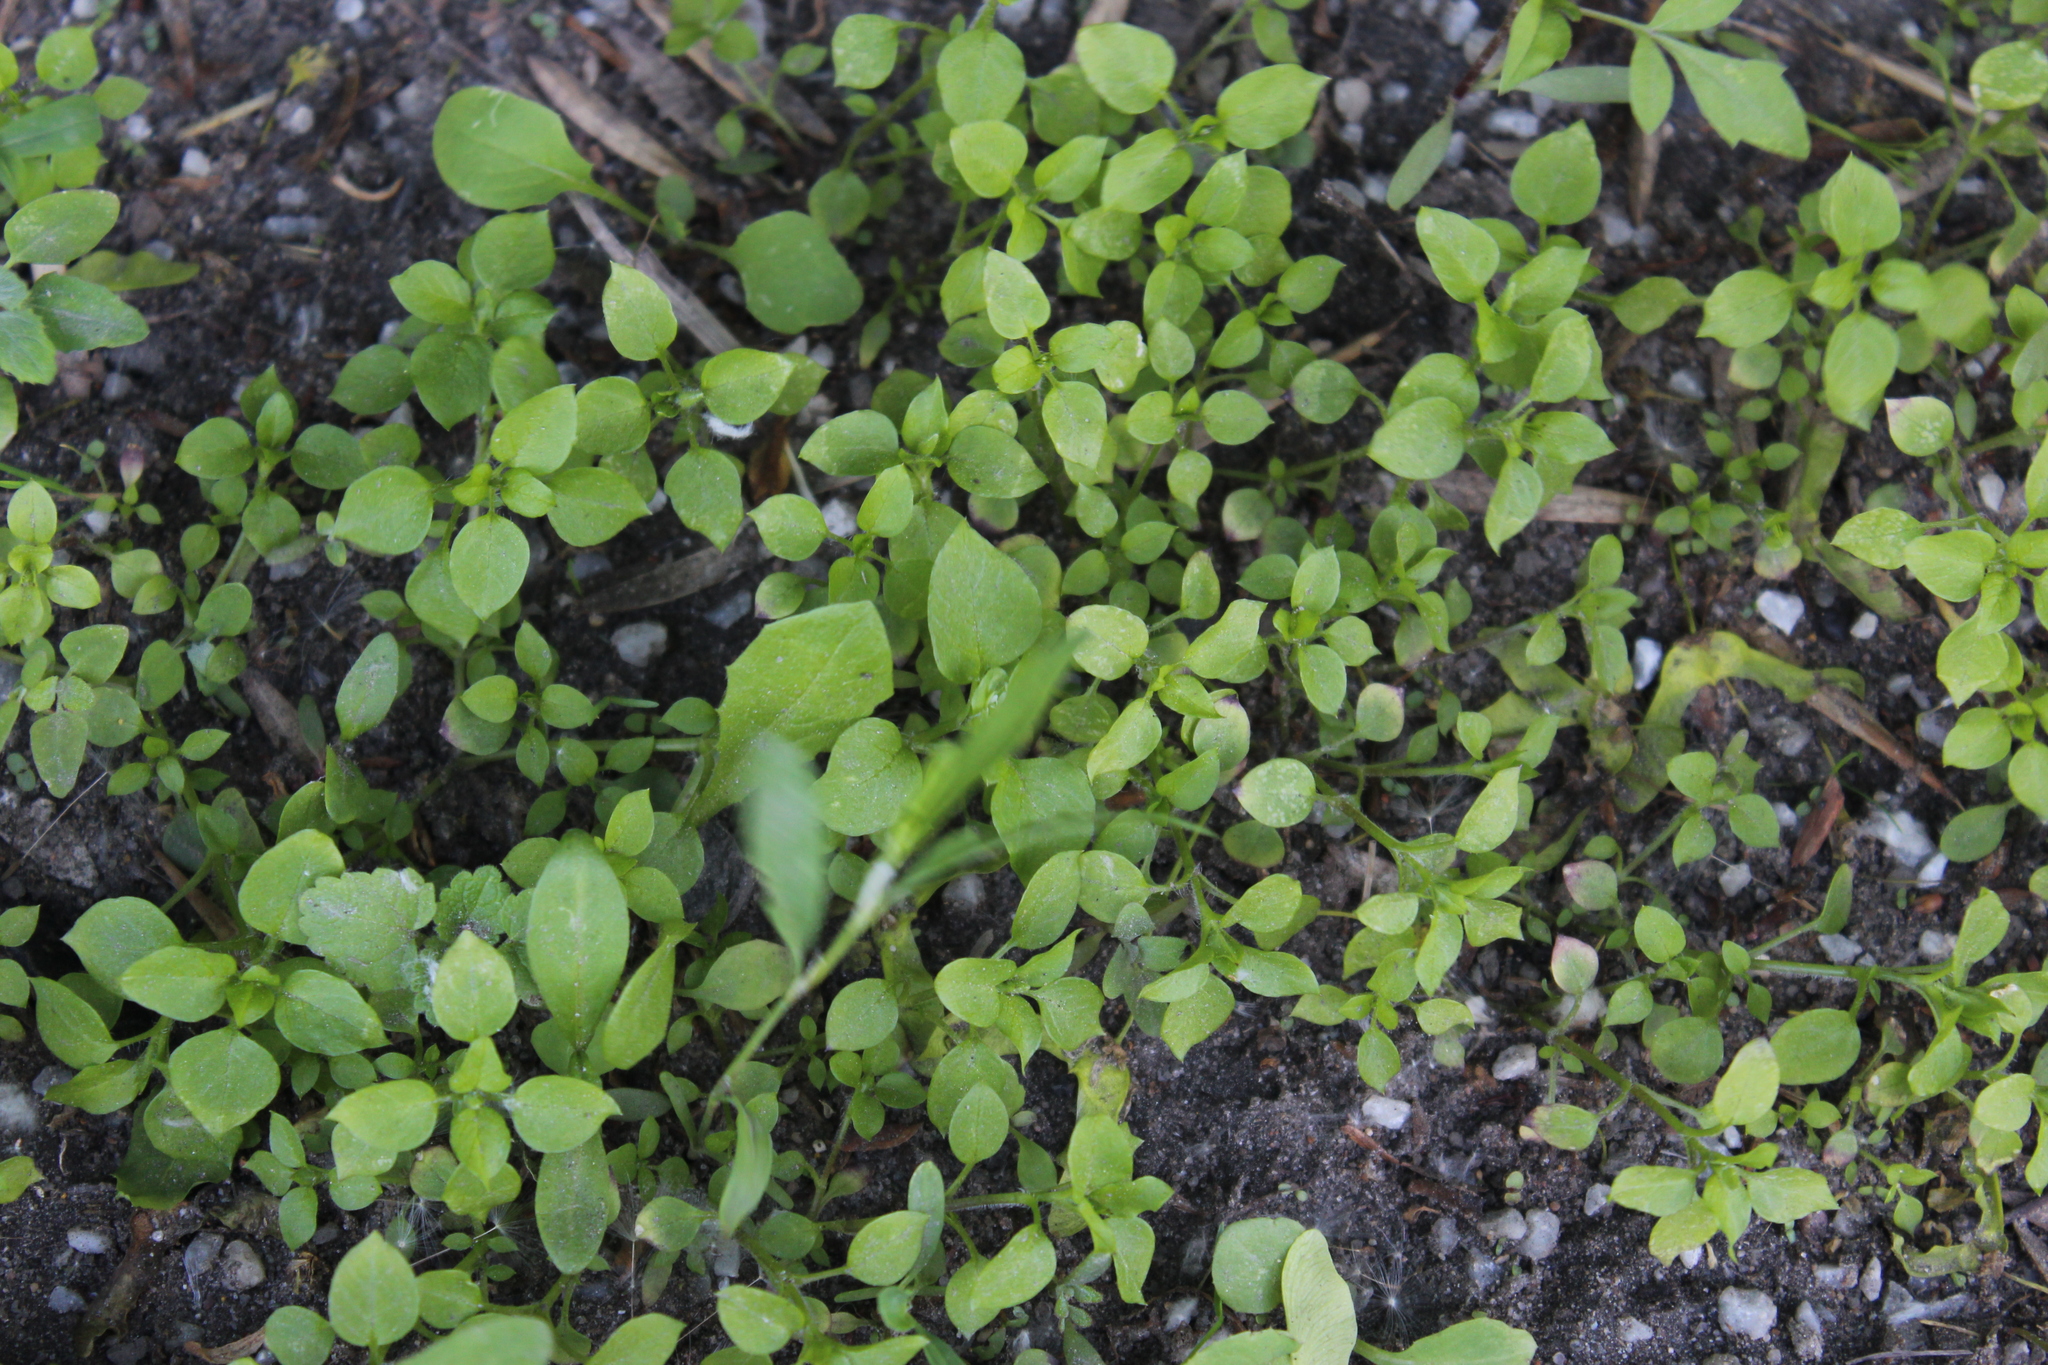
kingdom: Plantae
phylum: Tracheophyta
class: Magnoliopsida
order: Caryophyllales
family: Caryophyllaceae
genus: Stellaria
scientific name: Stellaria media
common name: Common chickweed
